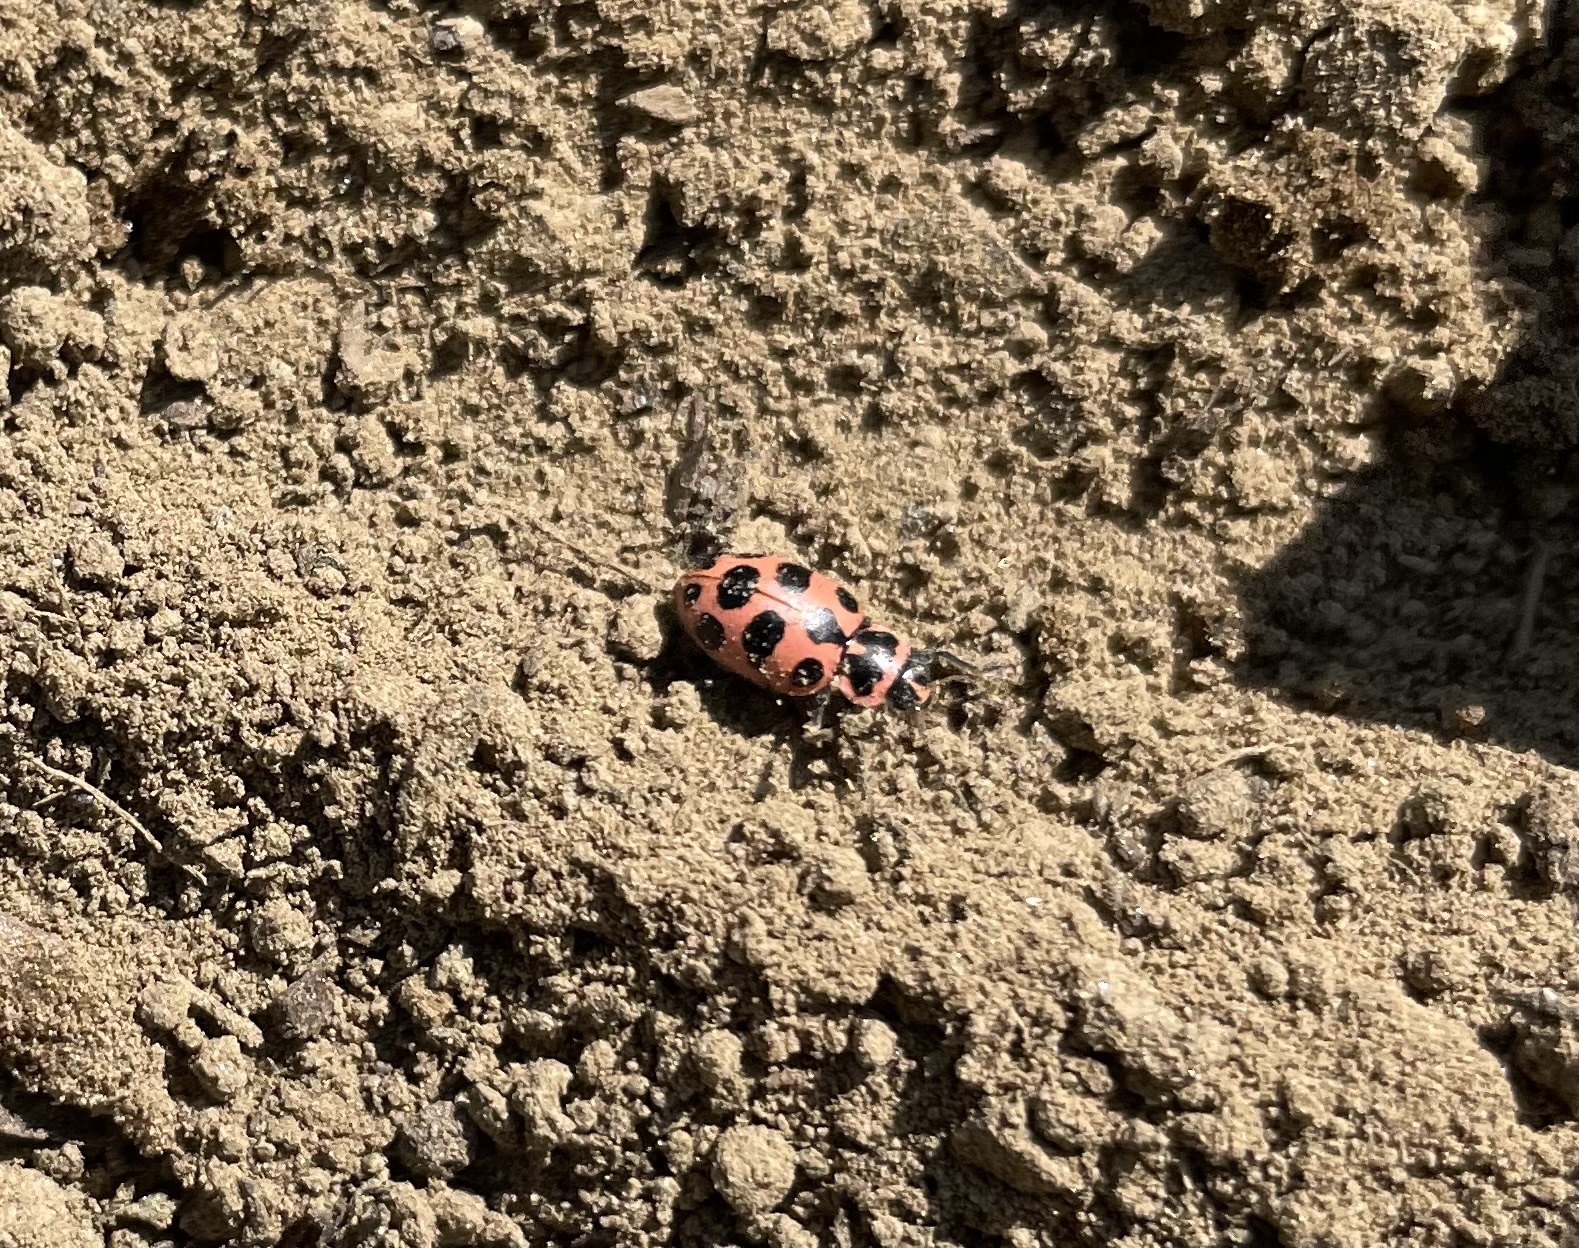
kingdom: Animalia
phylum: Arthropoda
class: Insecta
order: Coleoptera
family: Coccinellidae
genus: Coleomegilla
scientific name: Coleomegilla maculata
